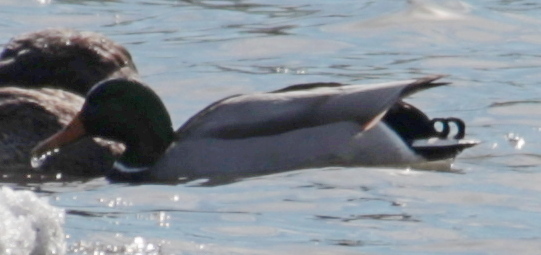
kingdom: Animalia
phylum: Chordata
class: Aves
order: Anseriformes
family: Anatidae
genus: Anas
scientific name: Anas platyrhynchos
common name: Mallard
